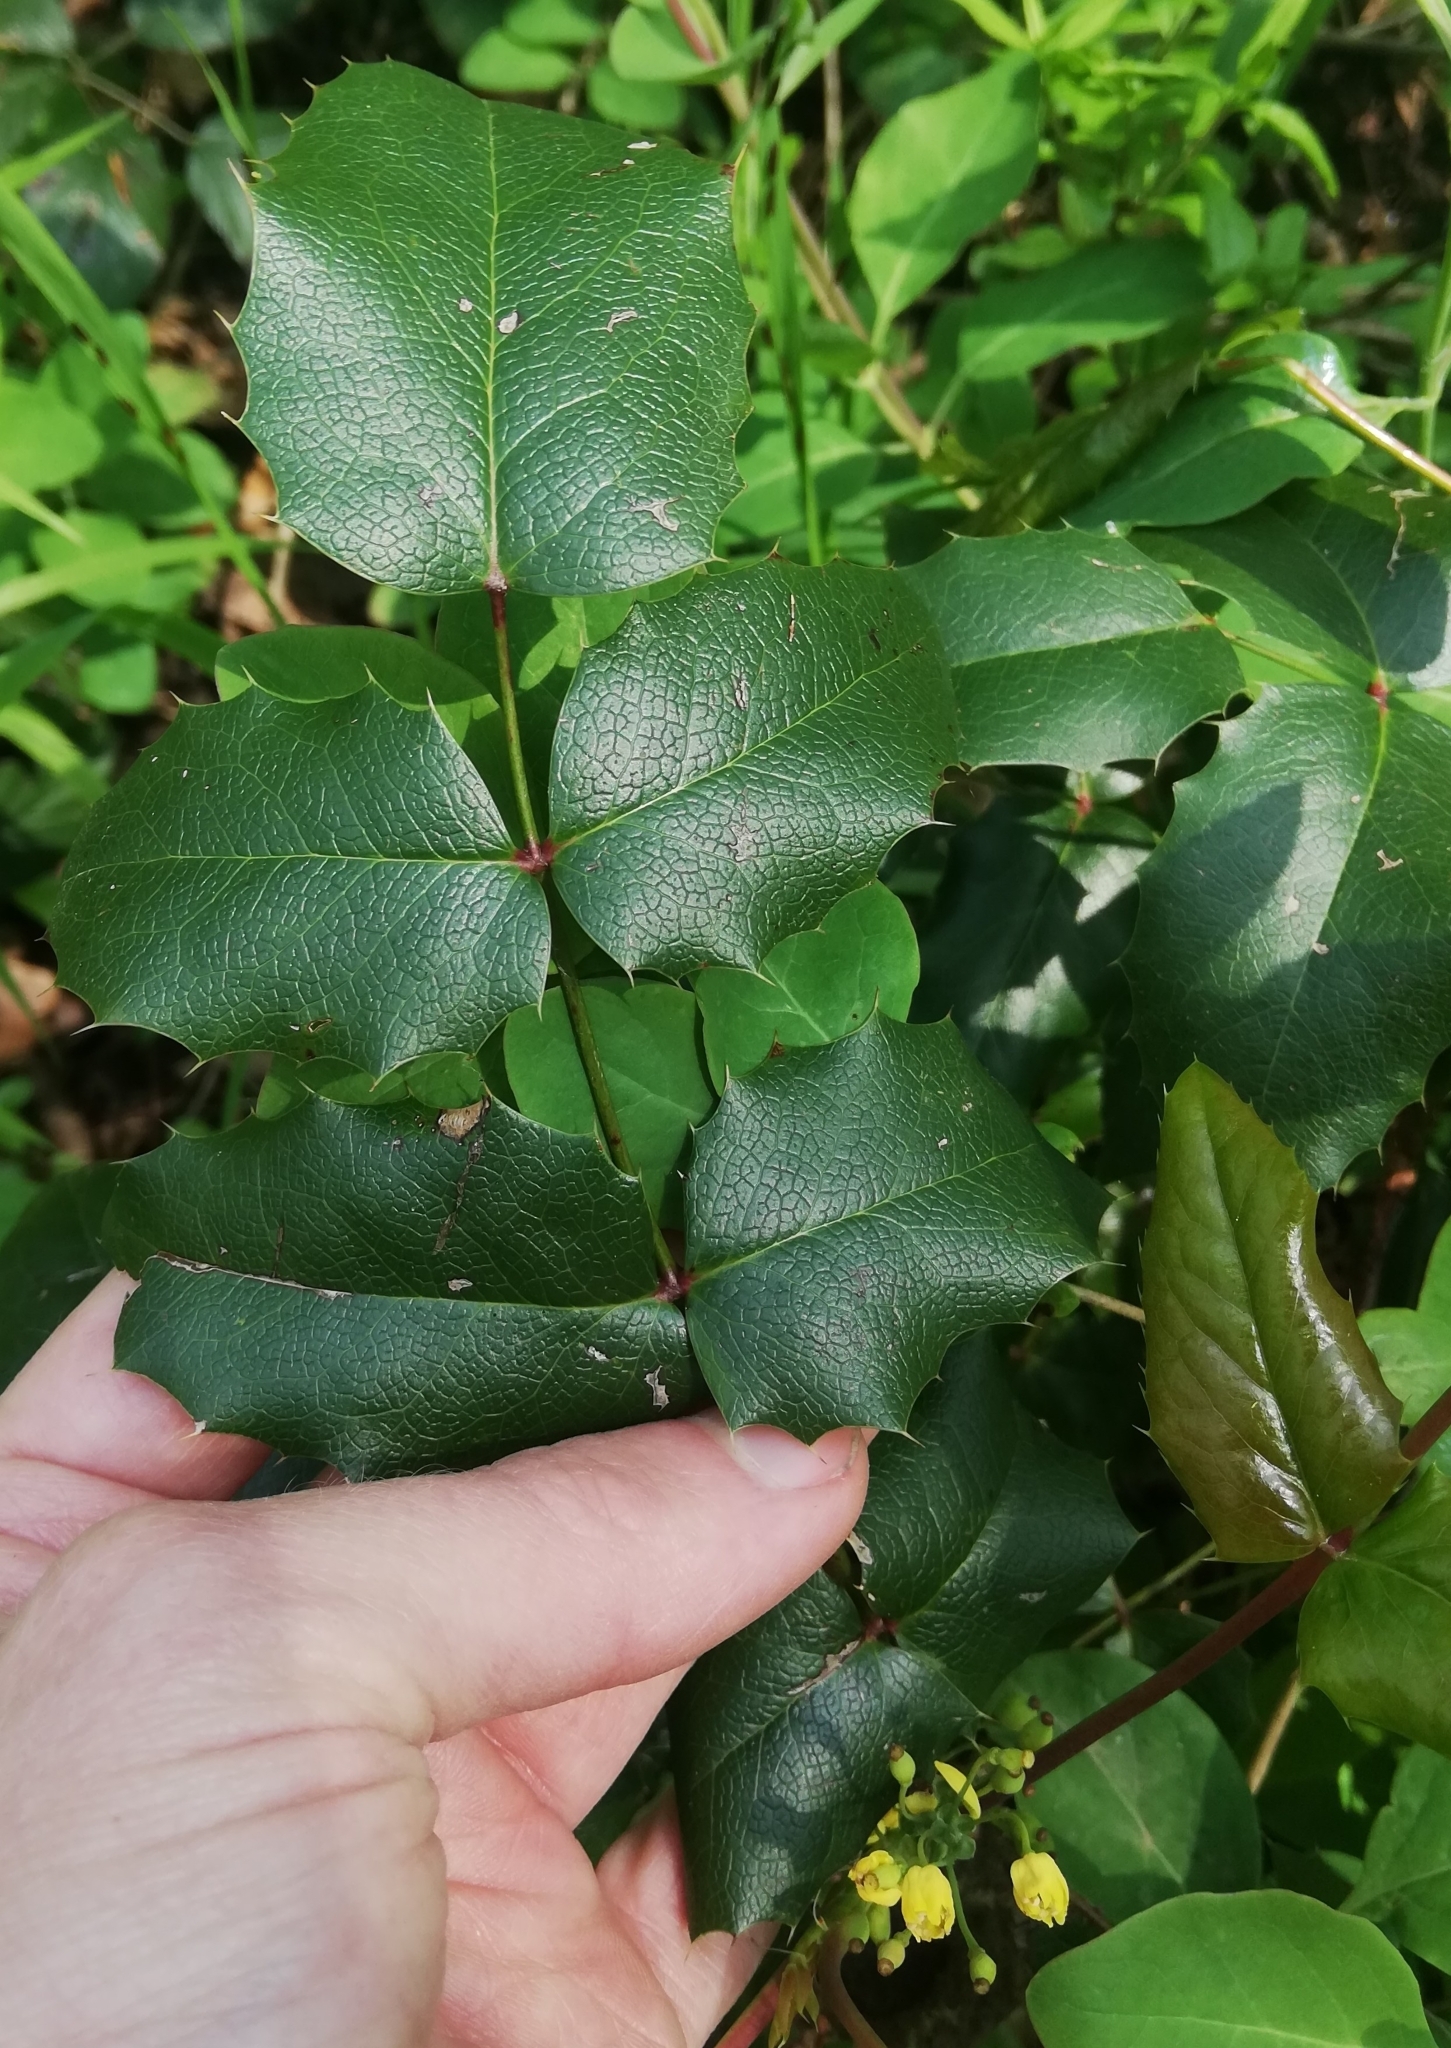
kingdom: Plantae
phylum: Tracheophyta
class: Magnoliopsida
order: Ranunculales
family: Berberidaceae
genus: Mahonia
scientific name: Mahonia aquifolium
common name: Oregon-grape
